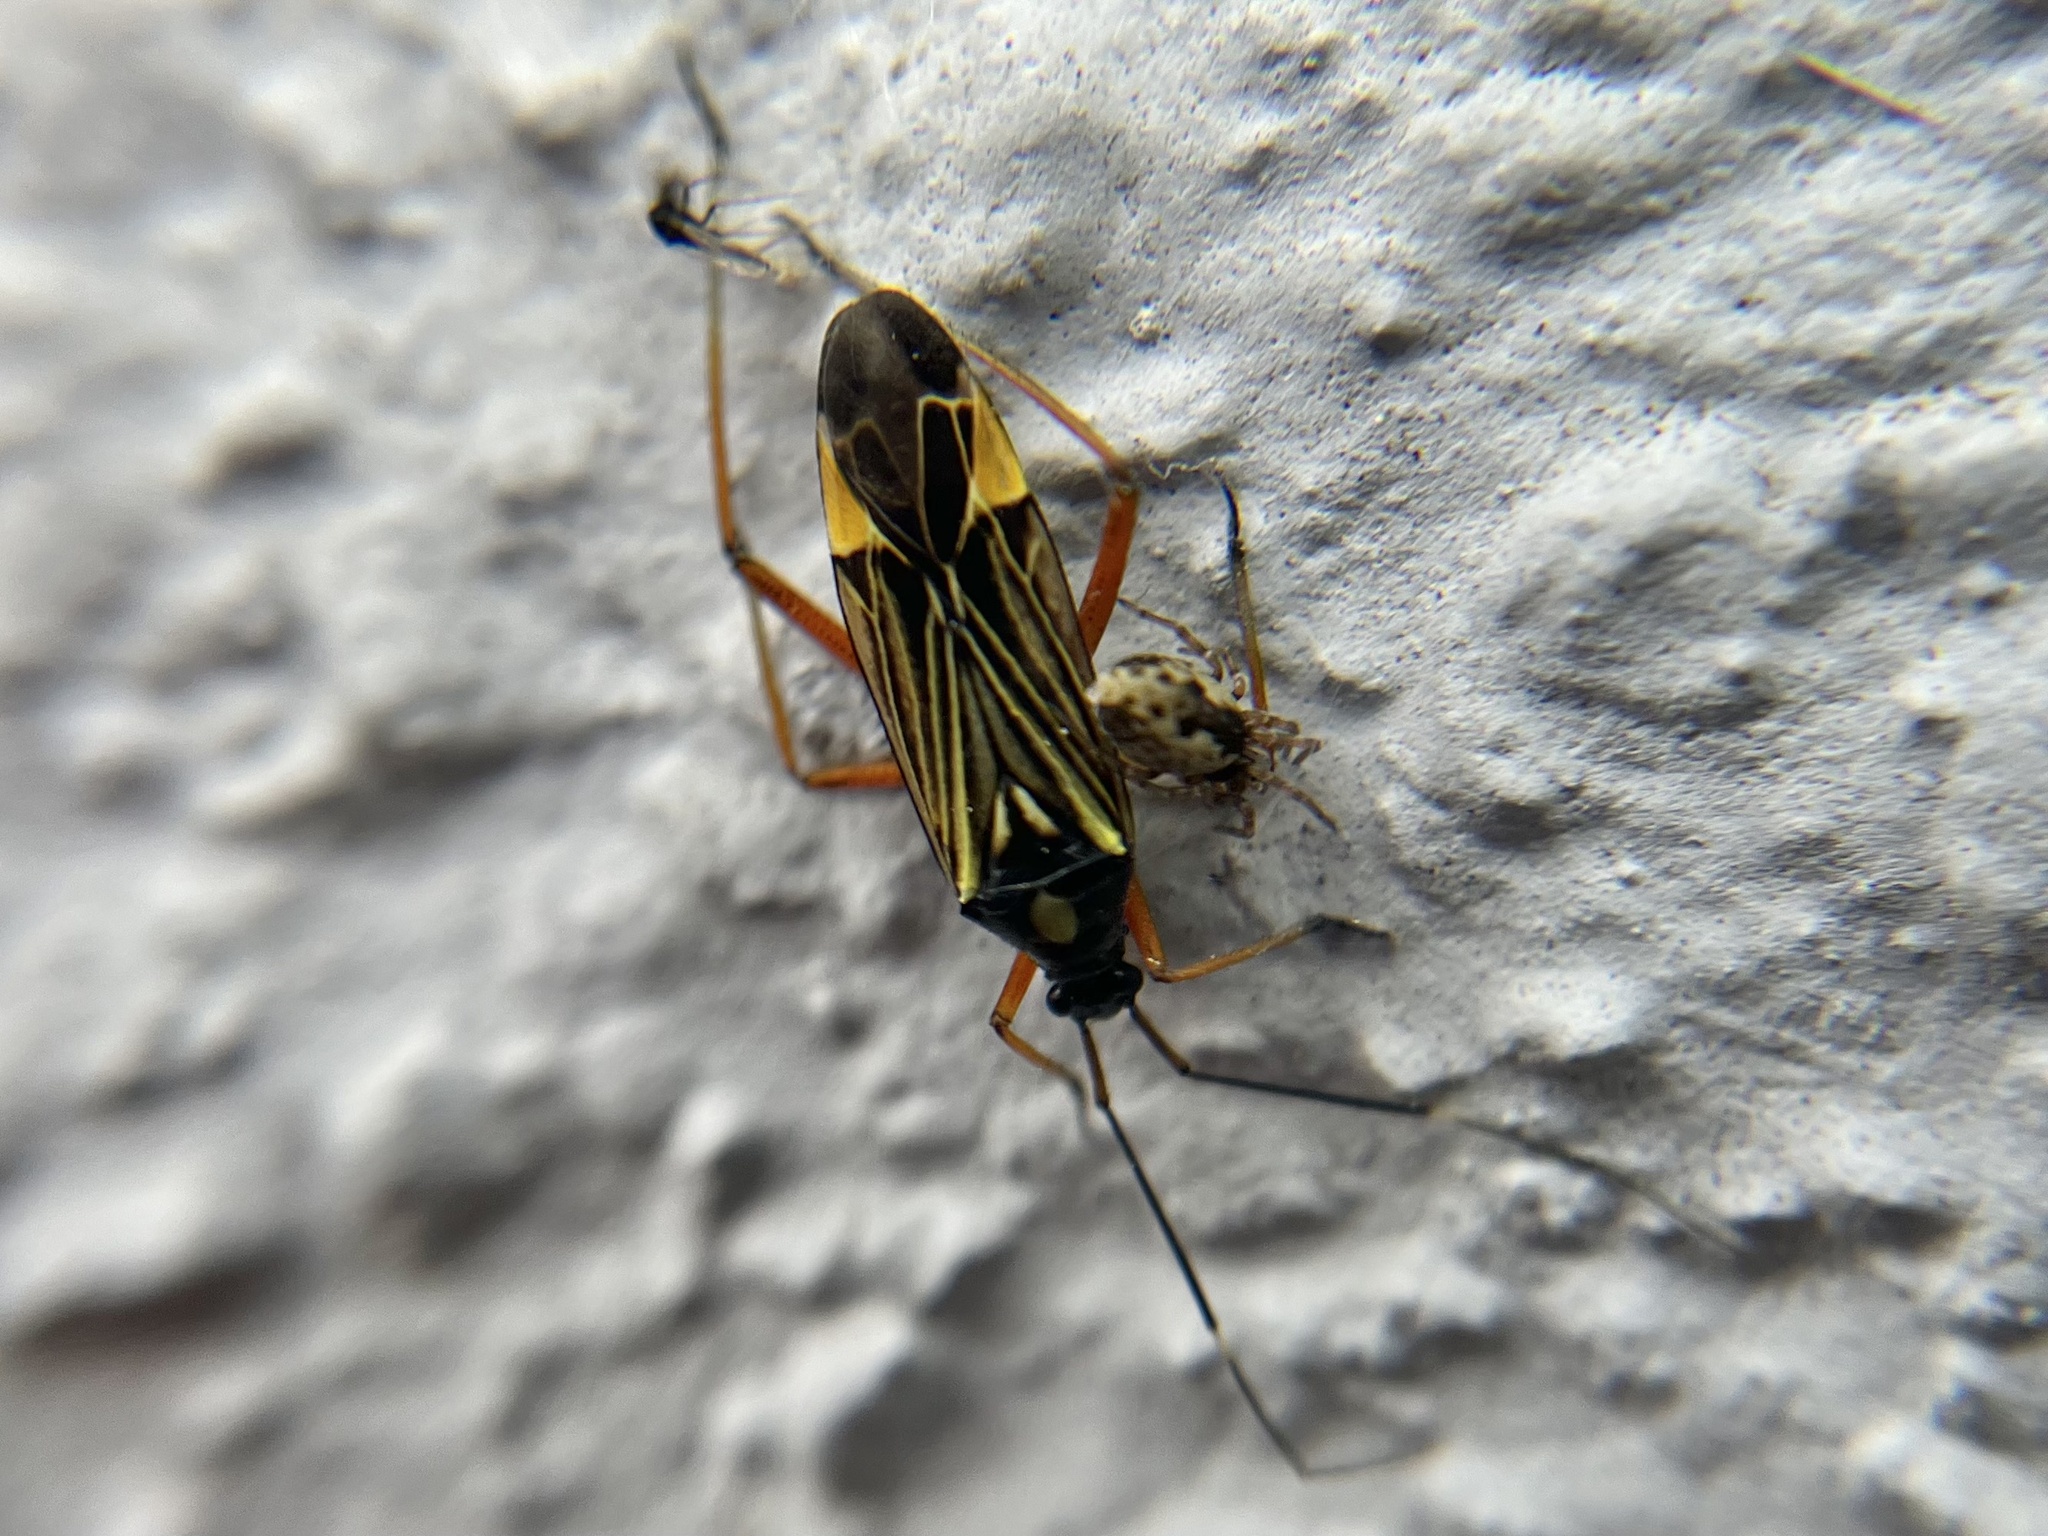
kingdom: Animalia
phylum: Arthropoda
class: Insecta
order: Hemiptera
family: Miridae
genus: Miris
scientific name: Miris striatus
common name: Fine streaked bugkin
